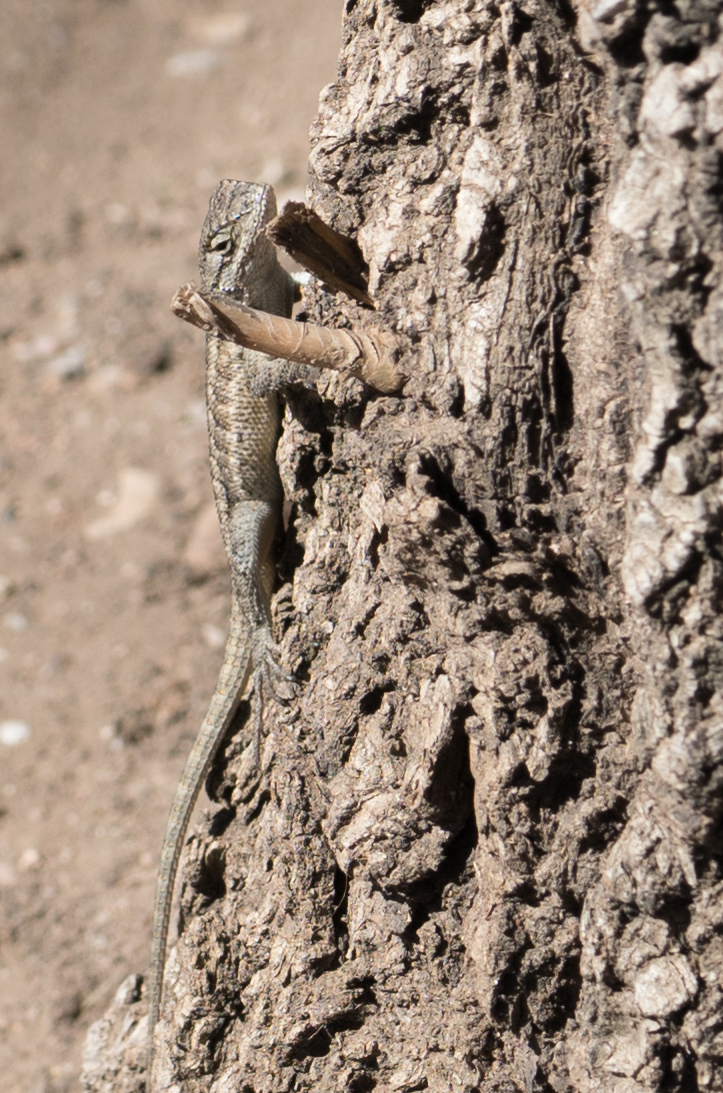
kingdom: Animalia
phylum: Chordata
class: Squamata
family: Phrynosomatidae
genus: Sceloporus
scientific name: Sceloporus occidentalis
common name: Western fence lizard
